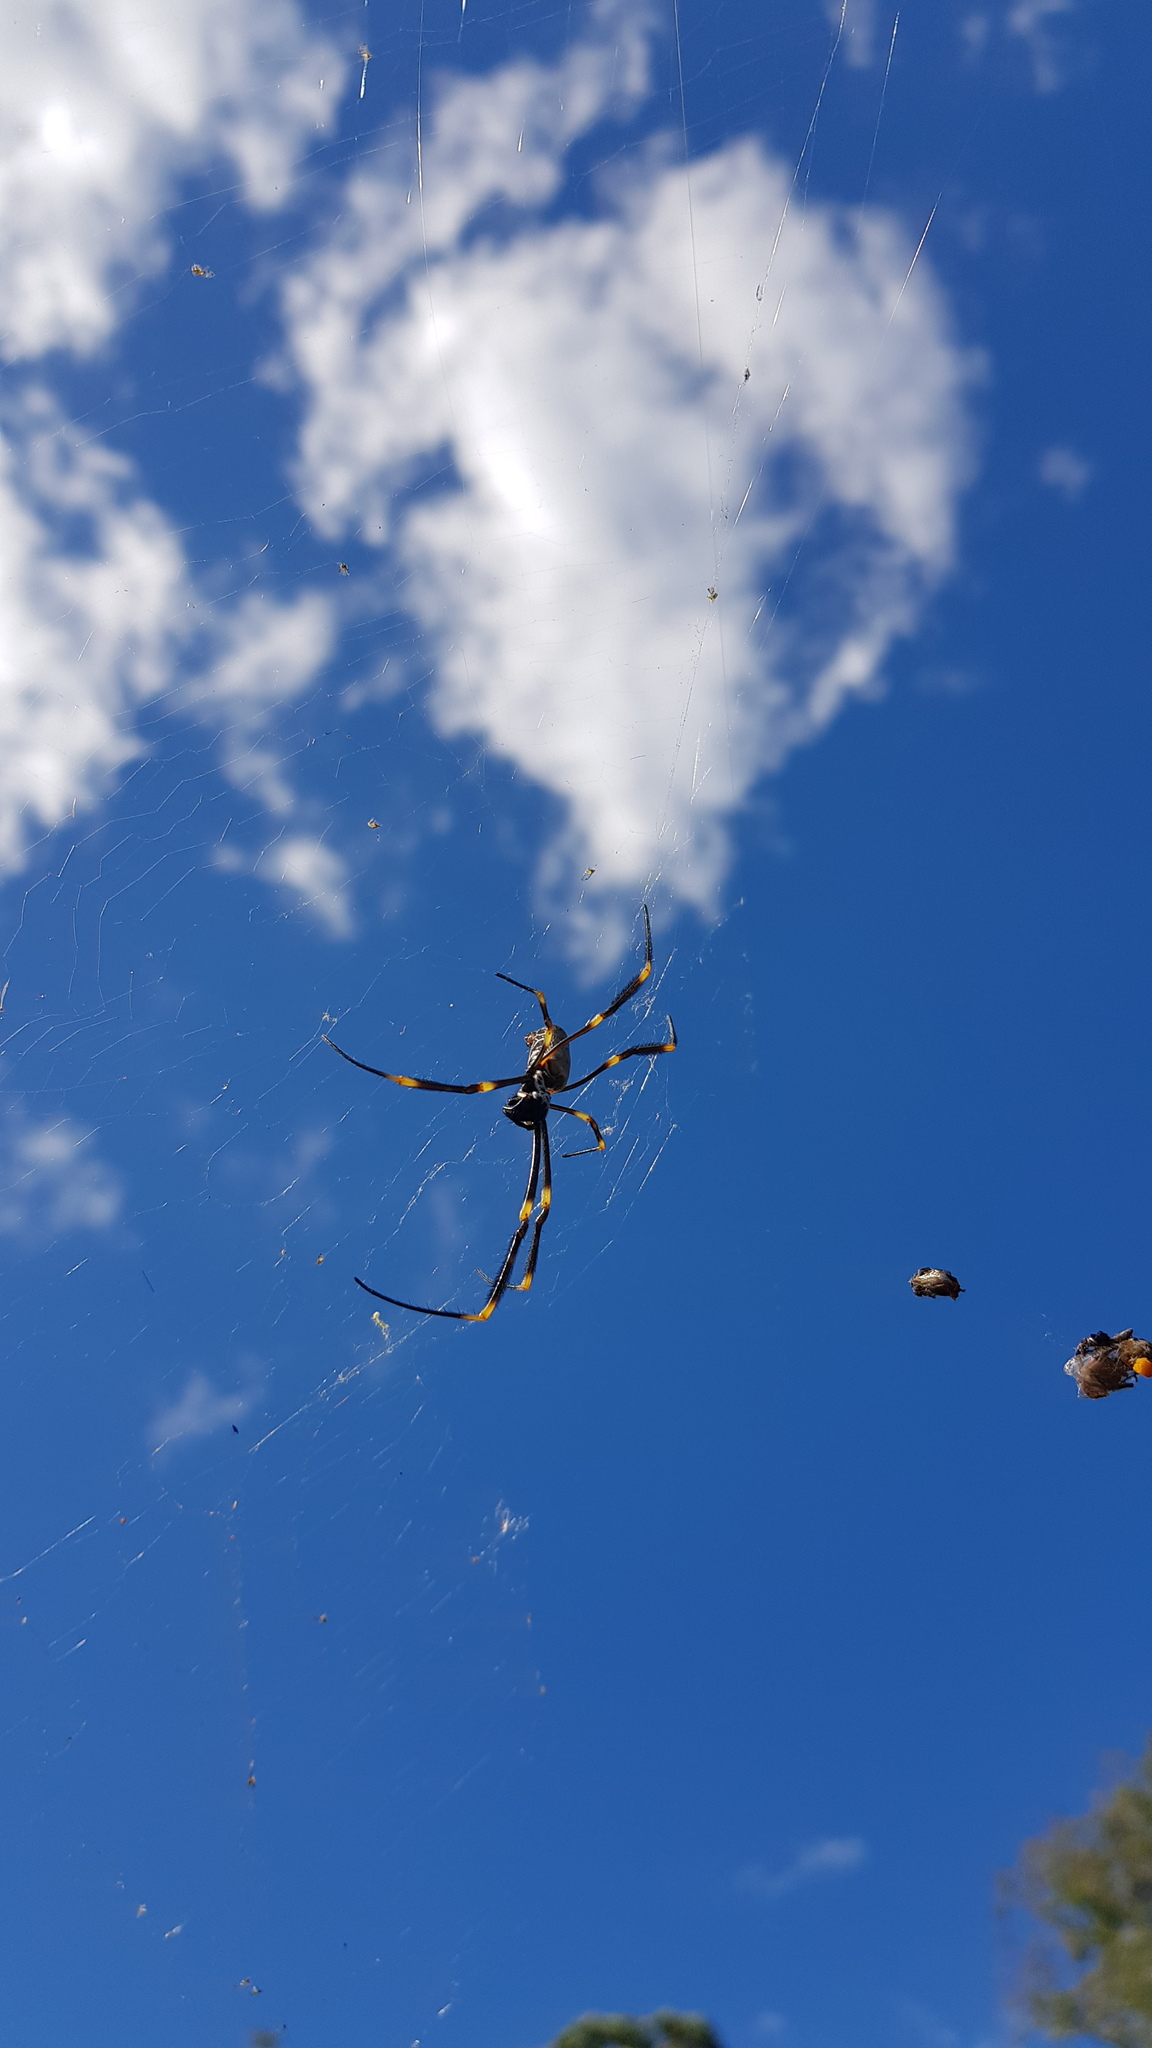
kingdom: Animalia
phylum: Arthropoda
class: Arachnida
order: Araneae
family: Araneidae
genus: Trichonephila
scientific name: Trichonephila plumipes
